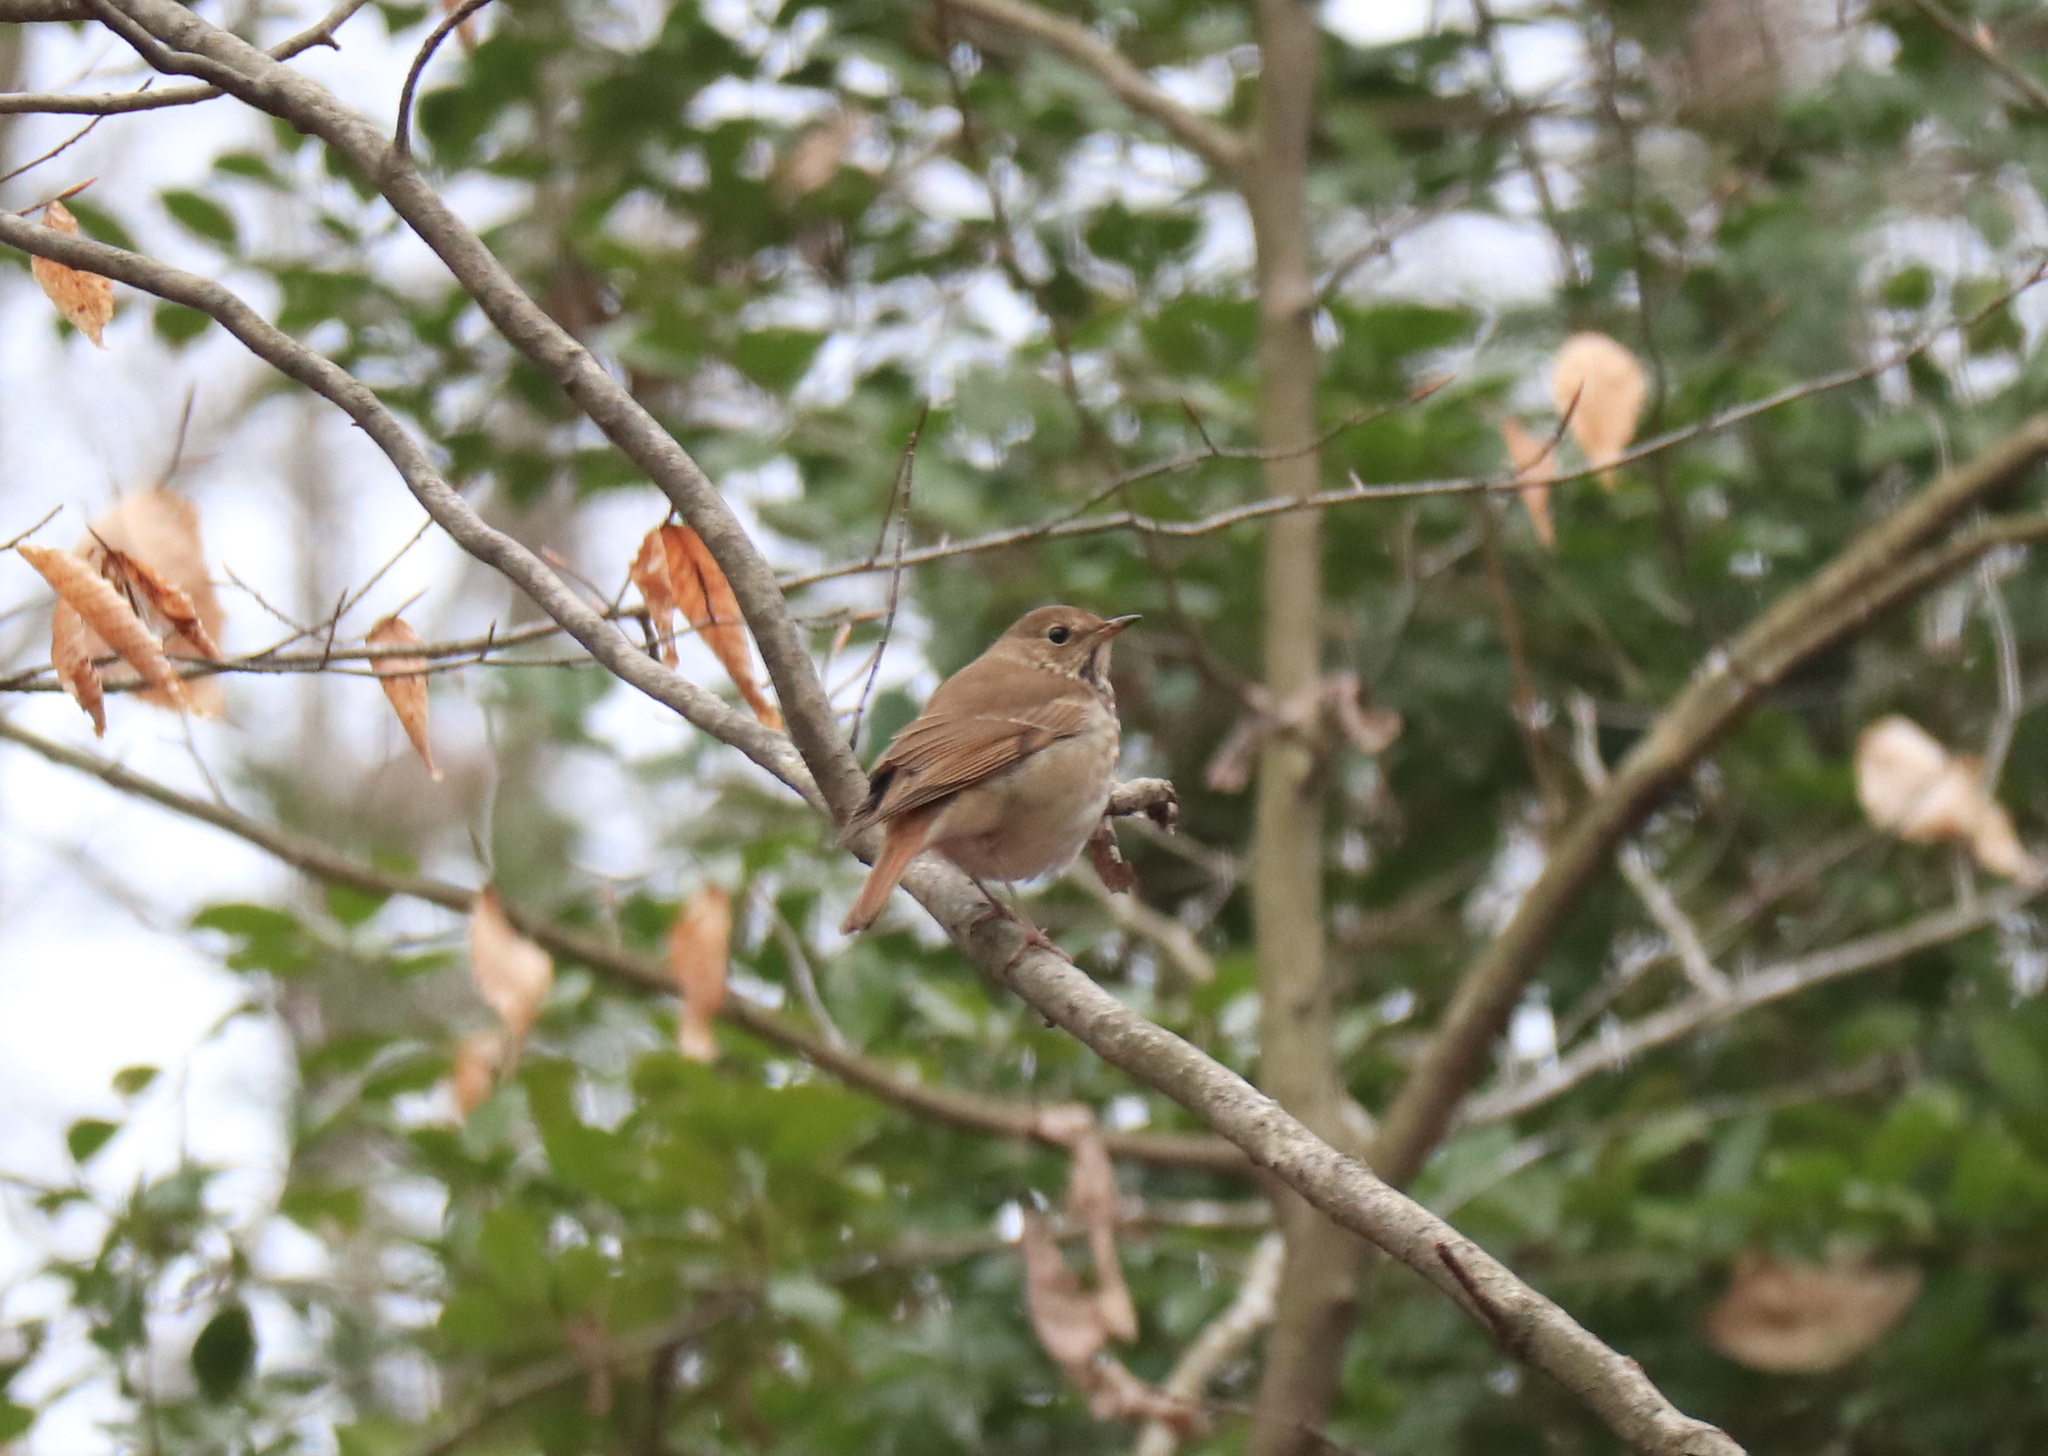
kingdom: Animalia
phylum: Chordata
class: Aves
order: Passeriformes
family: Turdidae
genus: Catharus
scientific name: Catharus guttatus
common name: Hermit thrush
